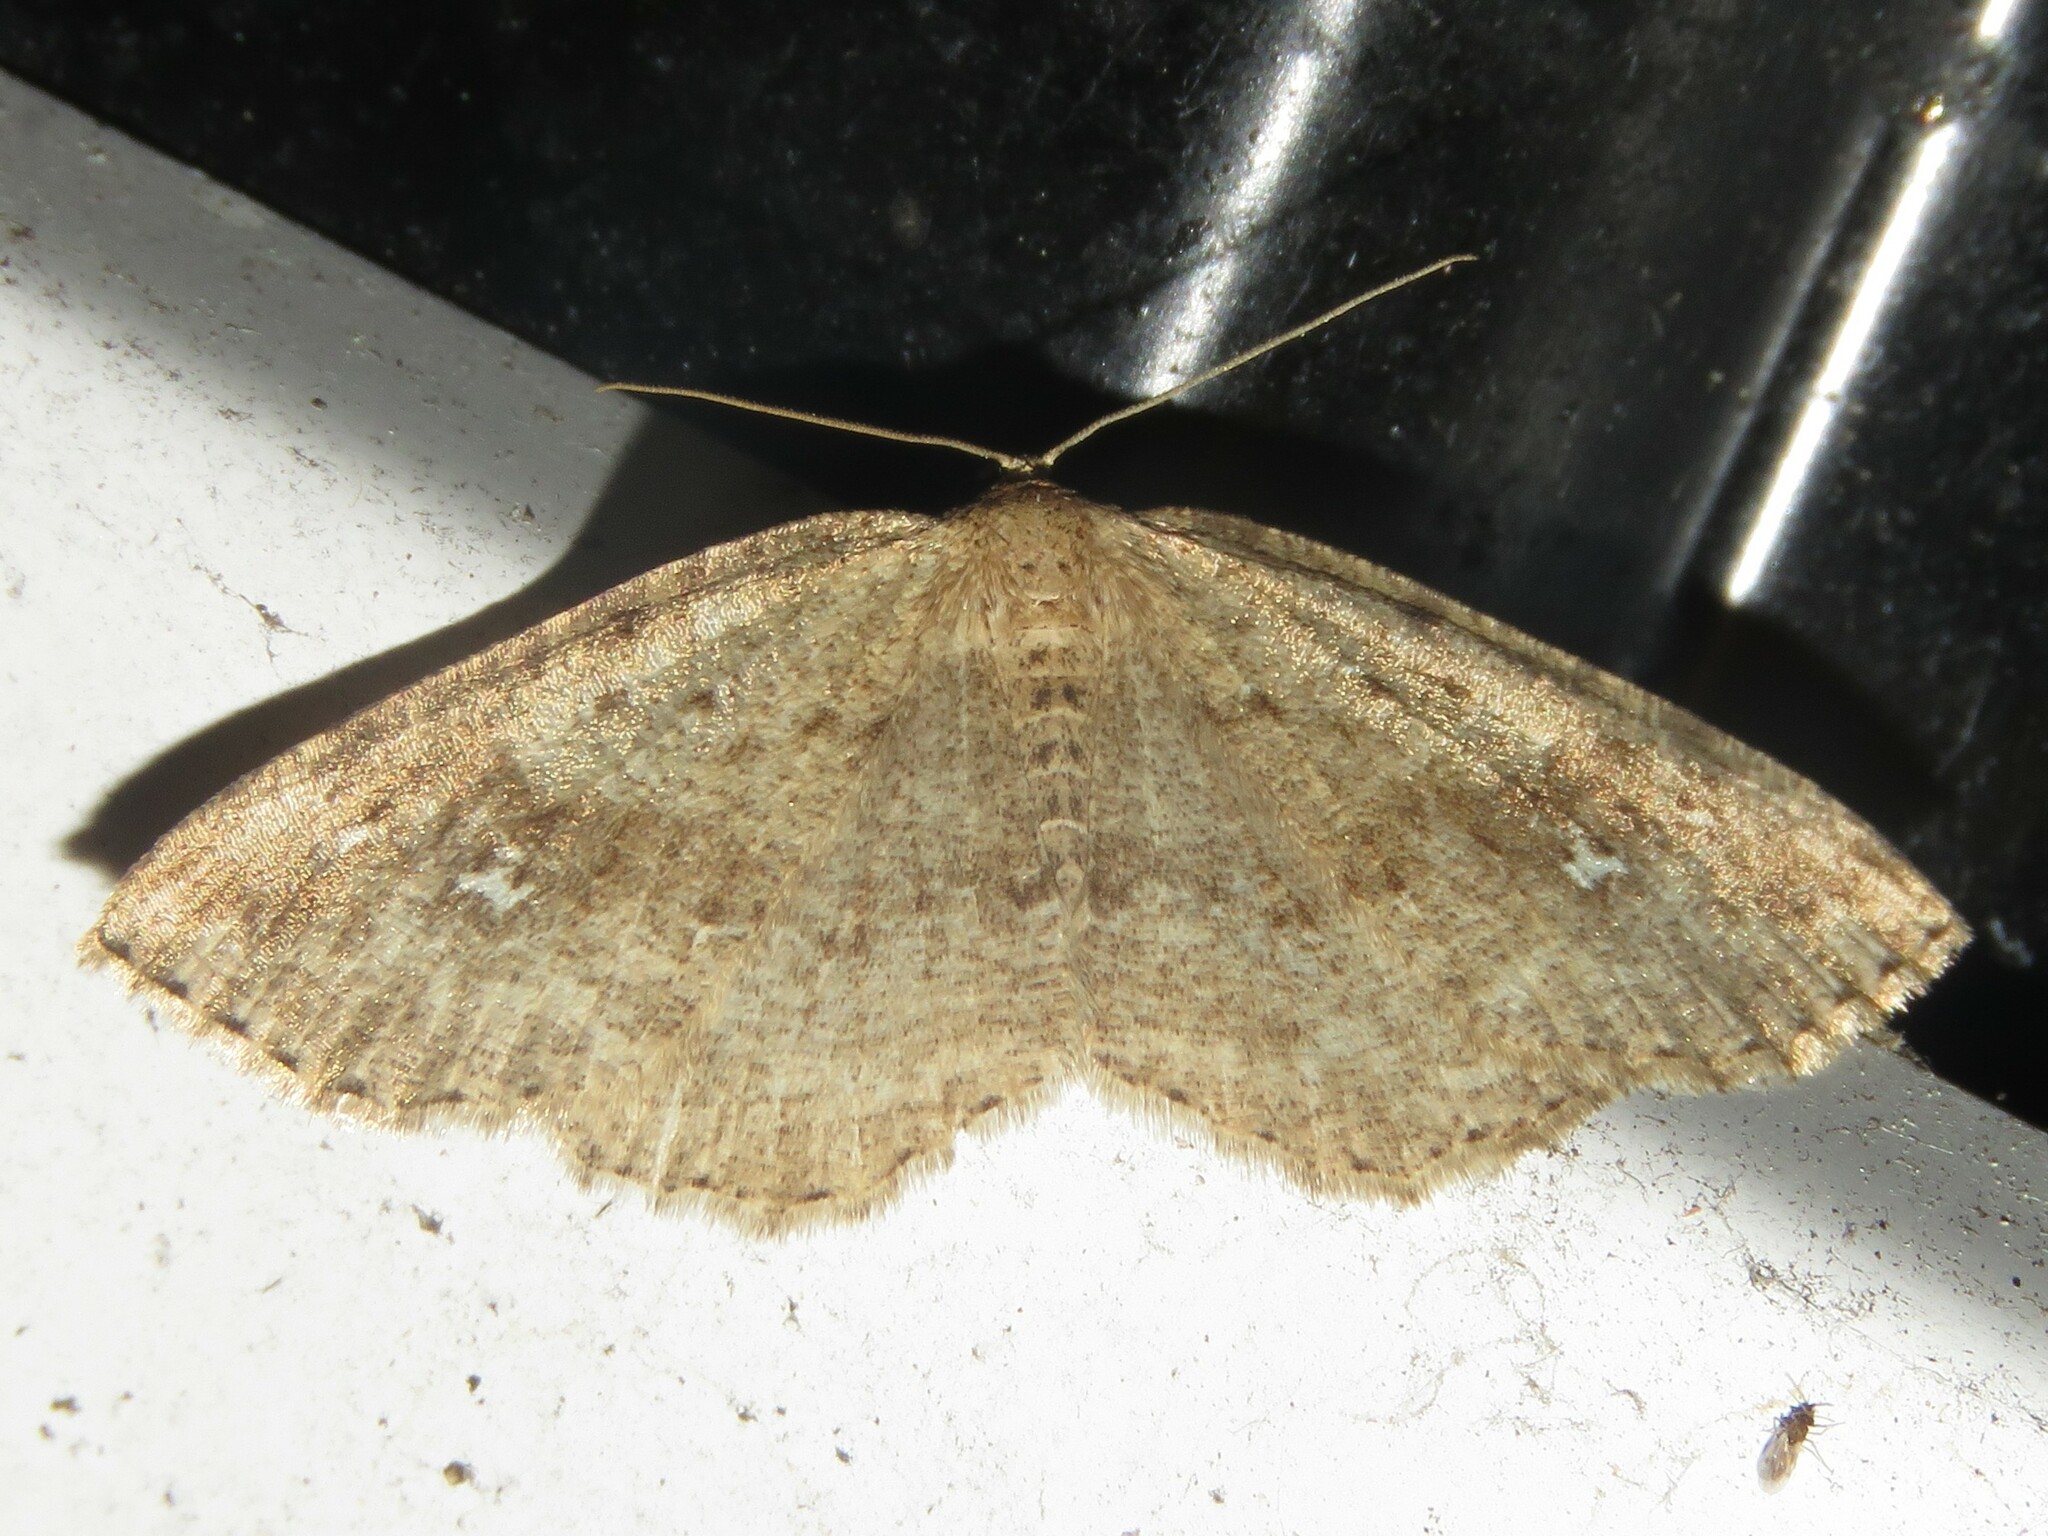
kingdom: Animalia
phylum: Arthropoda
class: Insecta
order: Lepidoptera
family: Geometridae
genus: Homochlodes
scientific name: Homochlodes fritillaria
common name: Pale homochlodes
